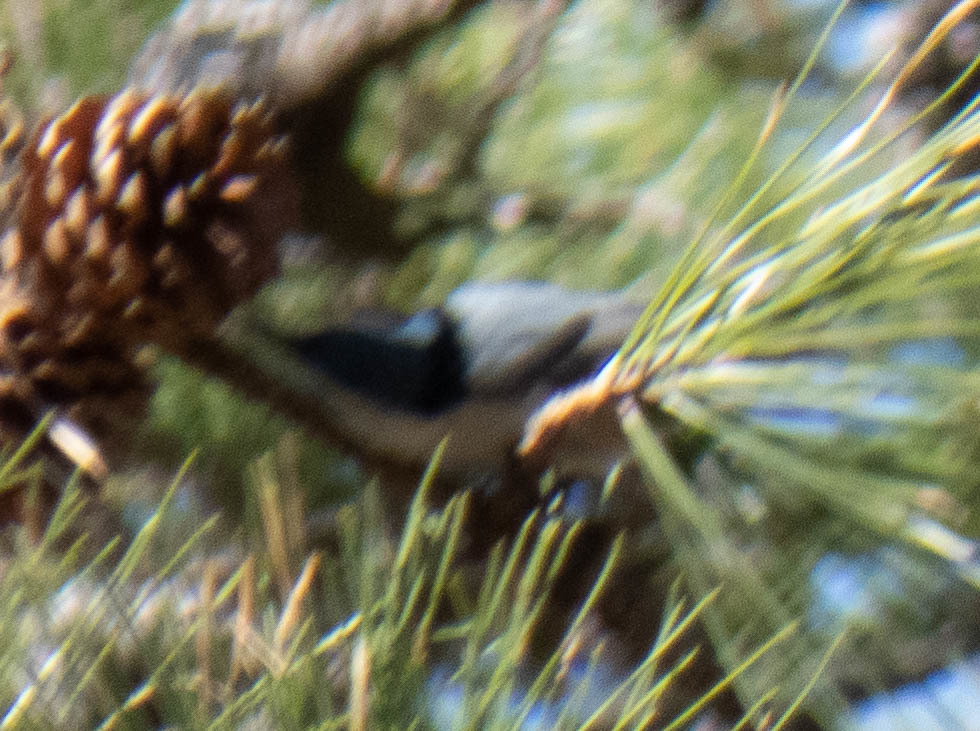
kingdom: Animalia
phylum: Chordata
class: Aves
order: Passeriformes
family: Sittidae
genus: Sitta
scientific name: Sitta carolinensis
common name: White-breasted nuthatch
